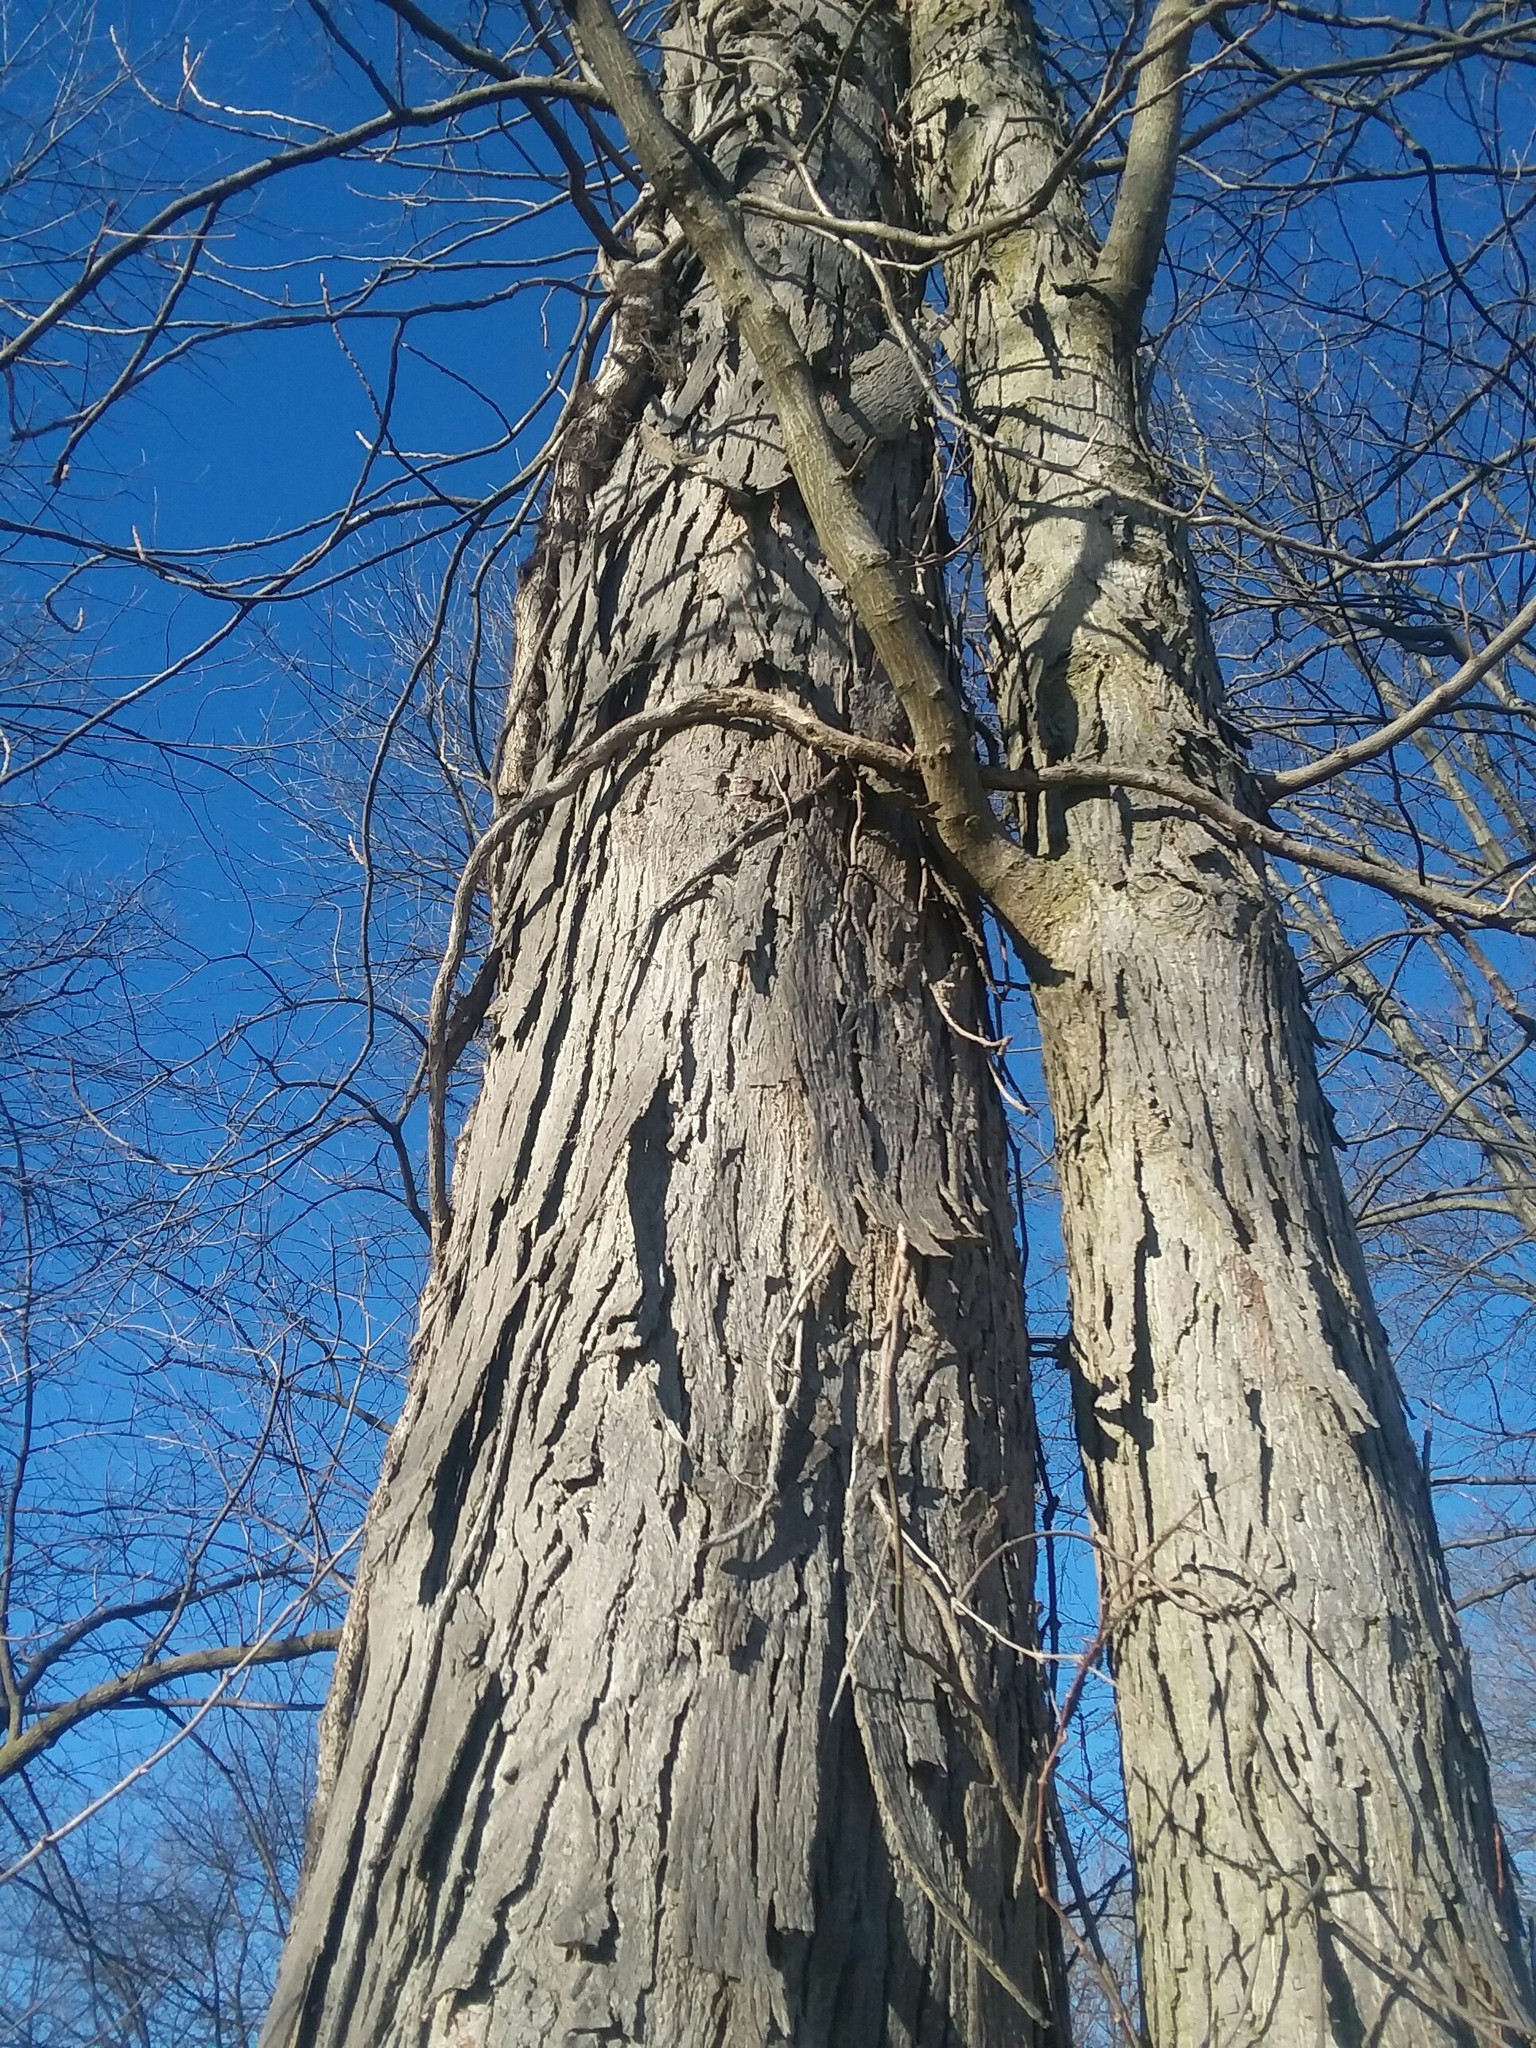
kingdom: Plantae
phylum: Tracheophyta
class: Magnoliopsida
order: Fagales
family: Juglandaceae
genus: Carya
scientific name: Carya ovata
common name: Shagbark hickory
